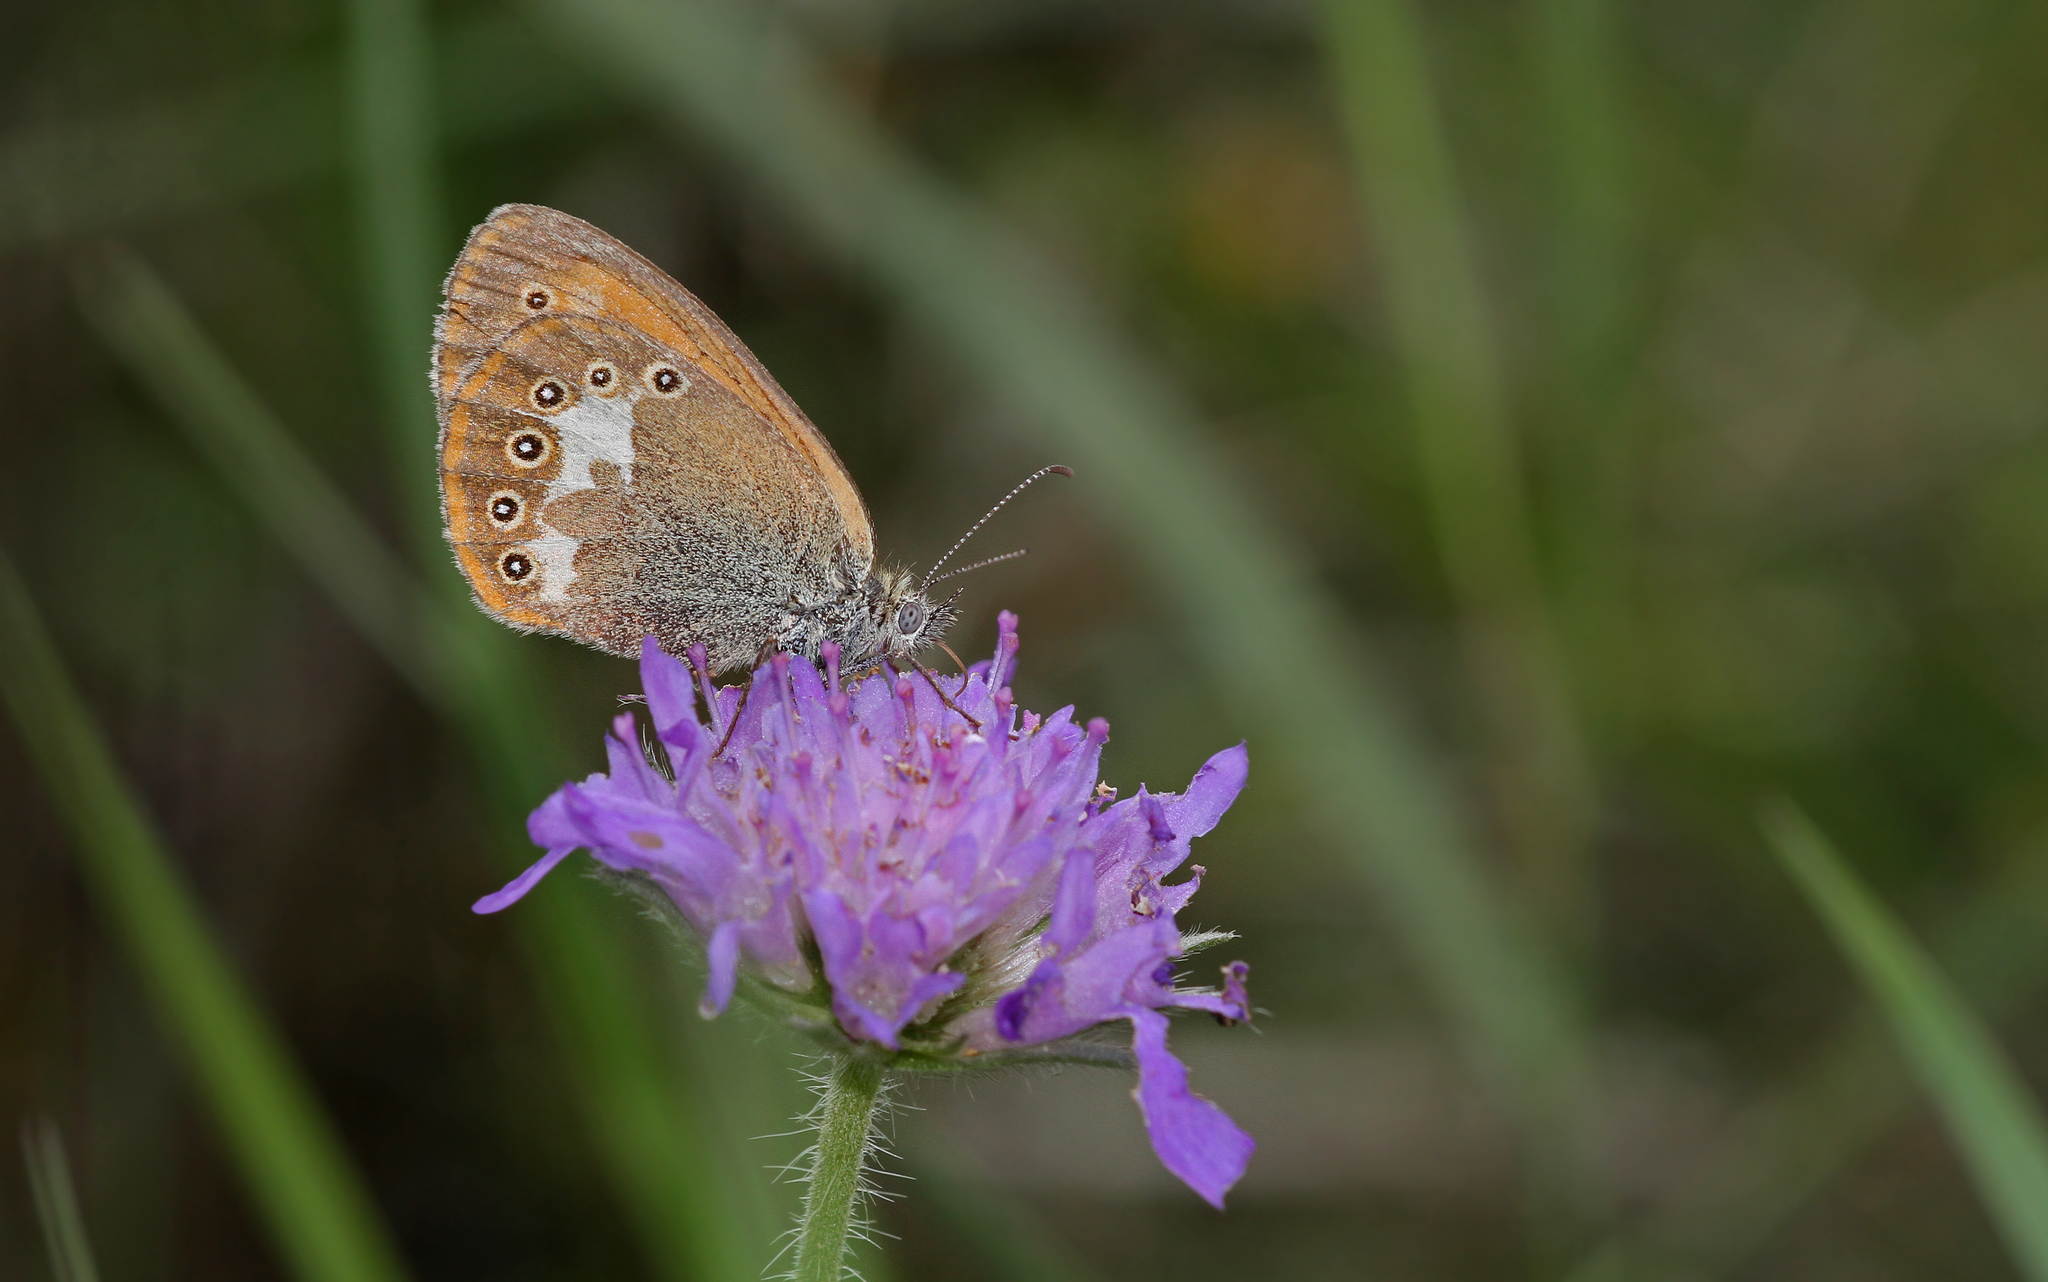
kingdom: Animalia
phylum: Arthropoda
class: Insecta
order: Lepidoptera
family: Nymphalidae
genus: Coenonympha
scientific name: Coenonympha iphis
